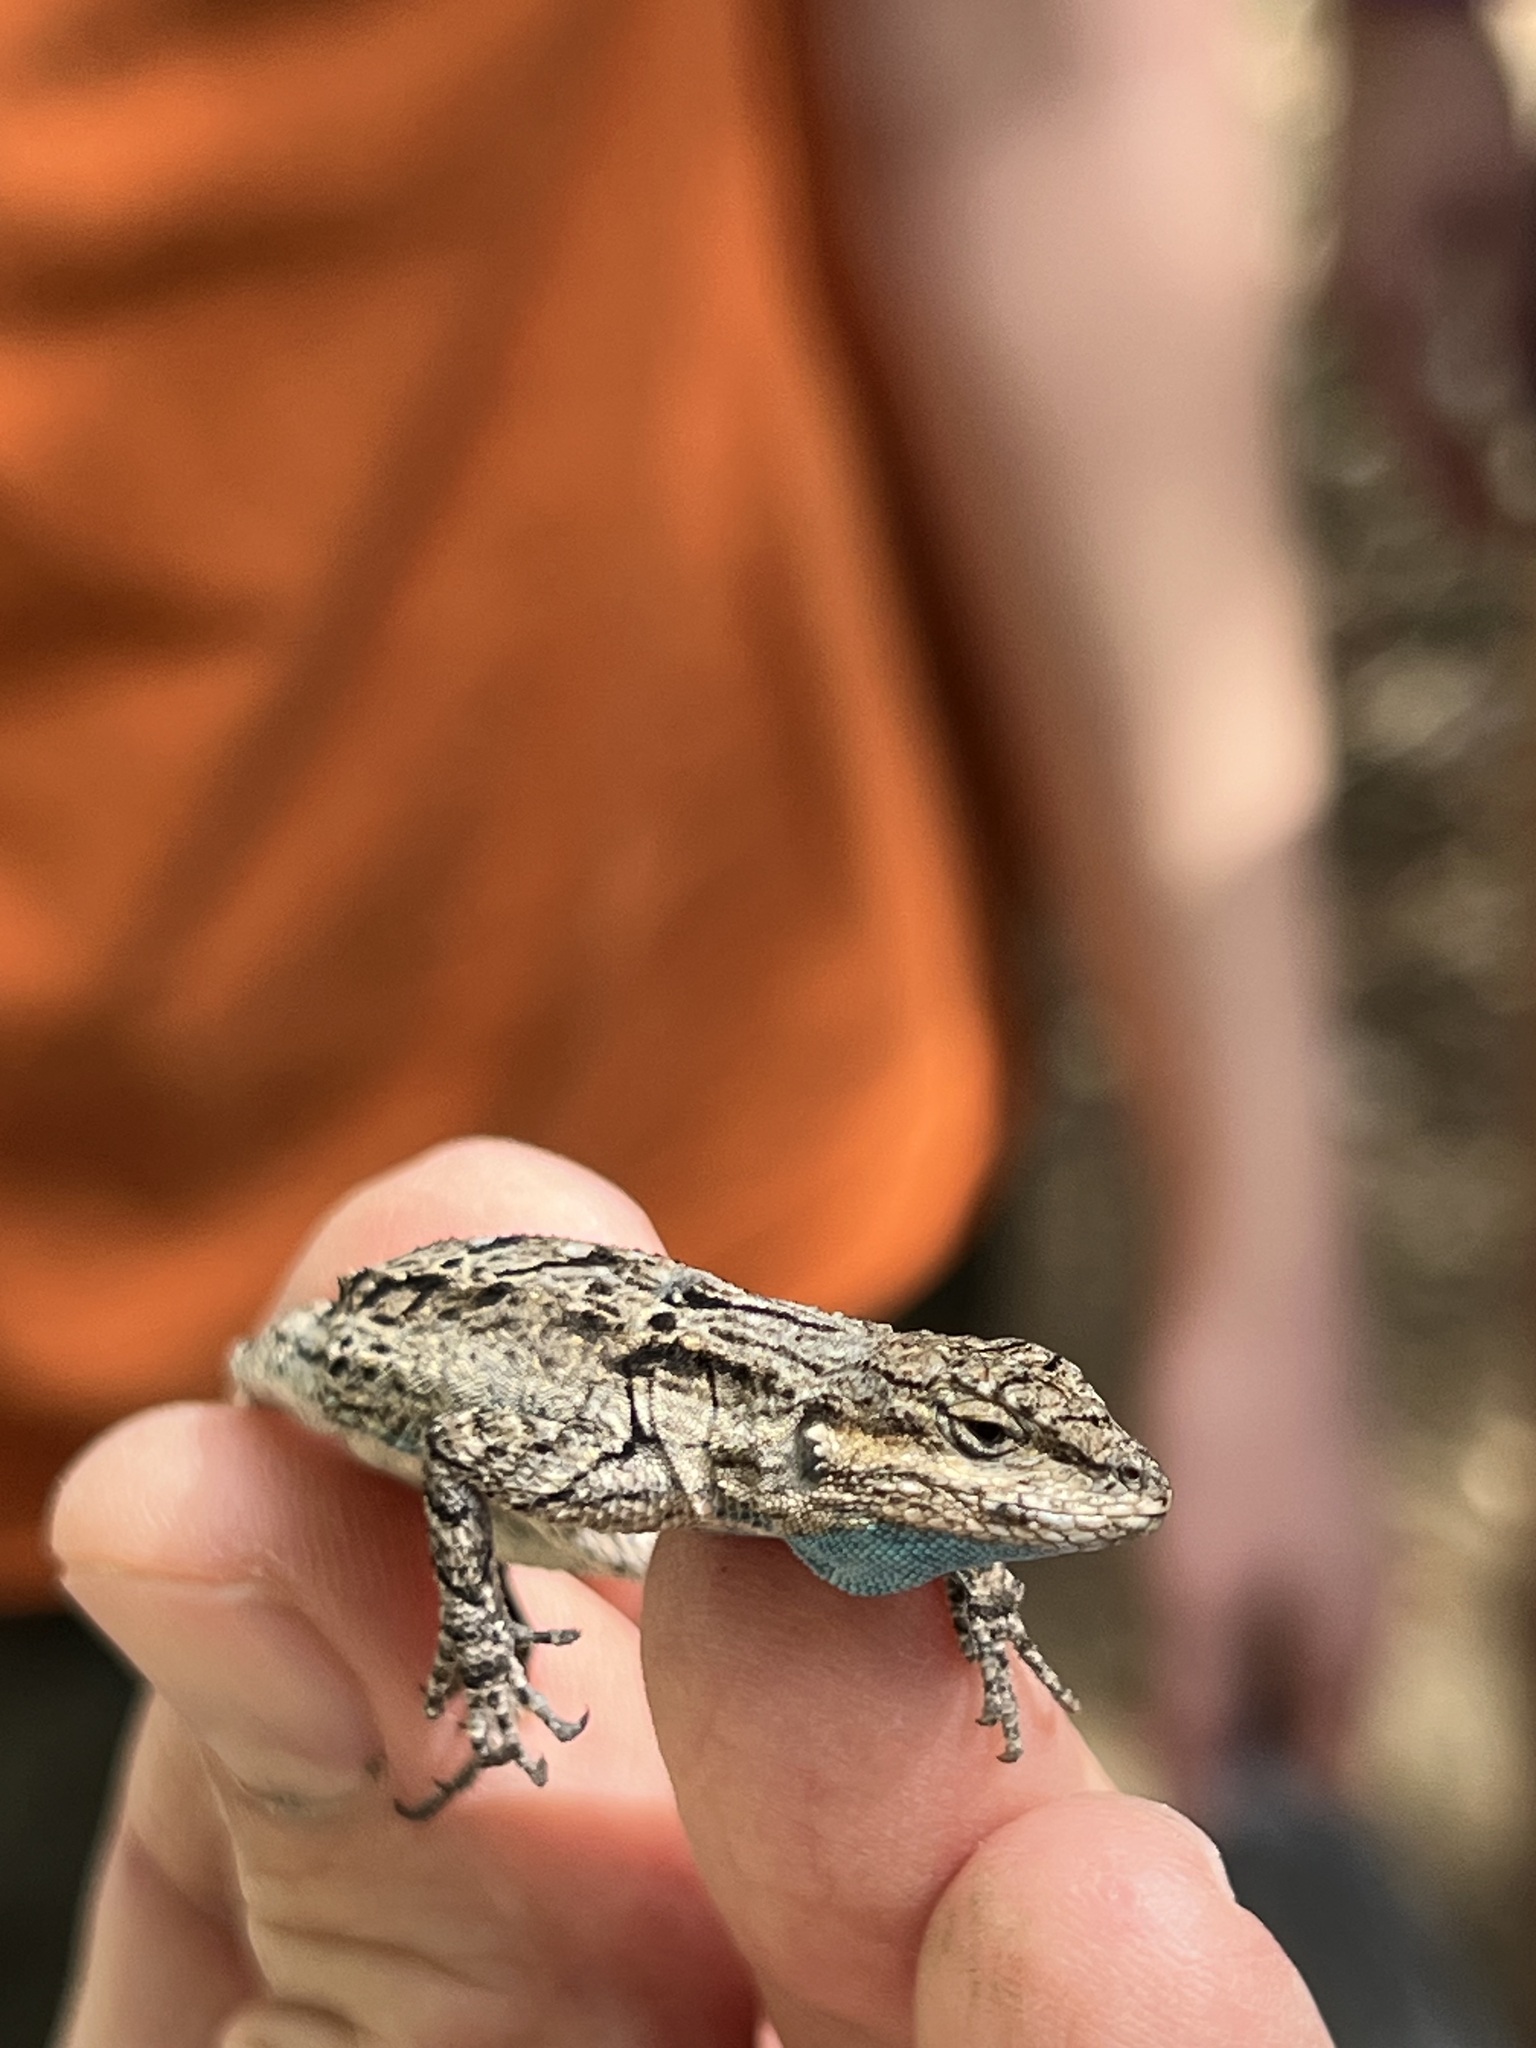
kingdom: Animalia
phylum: Chordata
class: Squamata
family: Phrynosomatidae
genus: Urosaurus
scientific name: Urosaurus ornatus
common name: Ornate tree lizard
